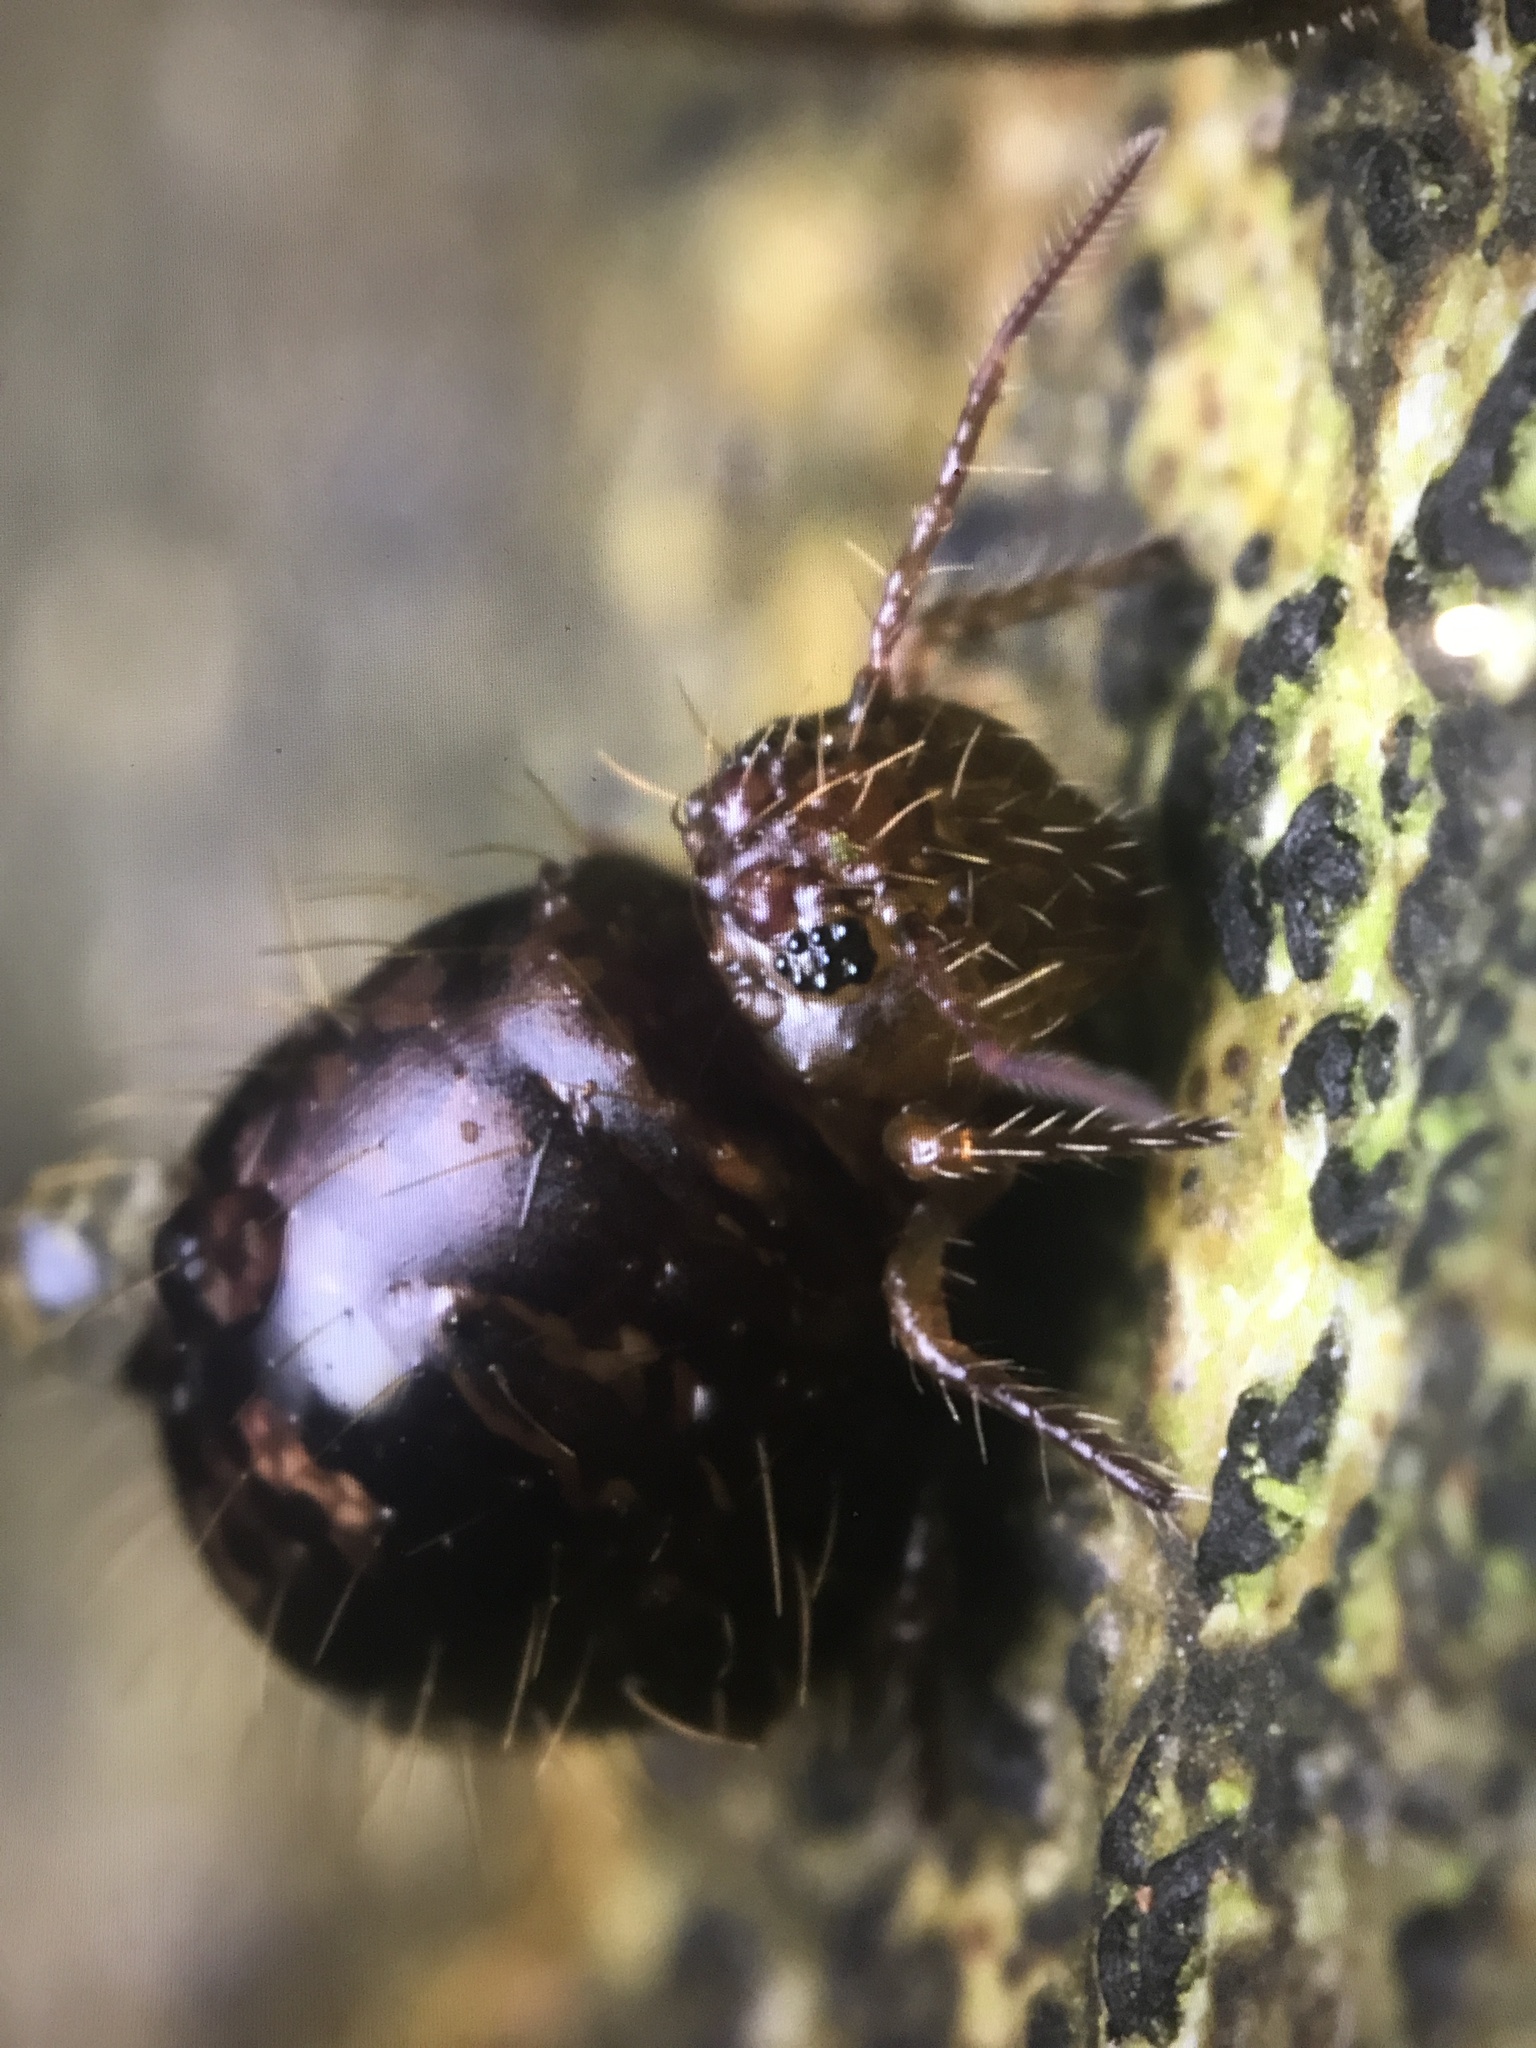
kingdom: Animalia
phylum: Arthropoda
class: Collembola
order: Symphypleona
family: Sminthuridae
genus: Allacma
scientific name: Allacma fusca
